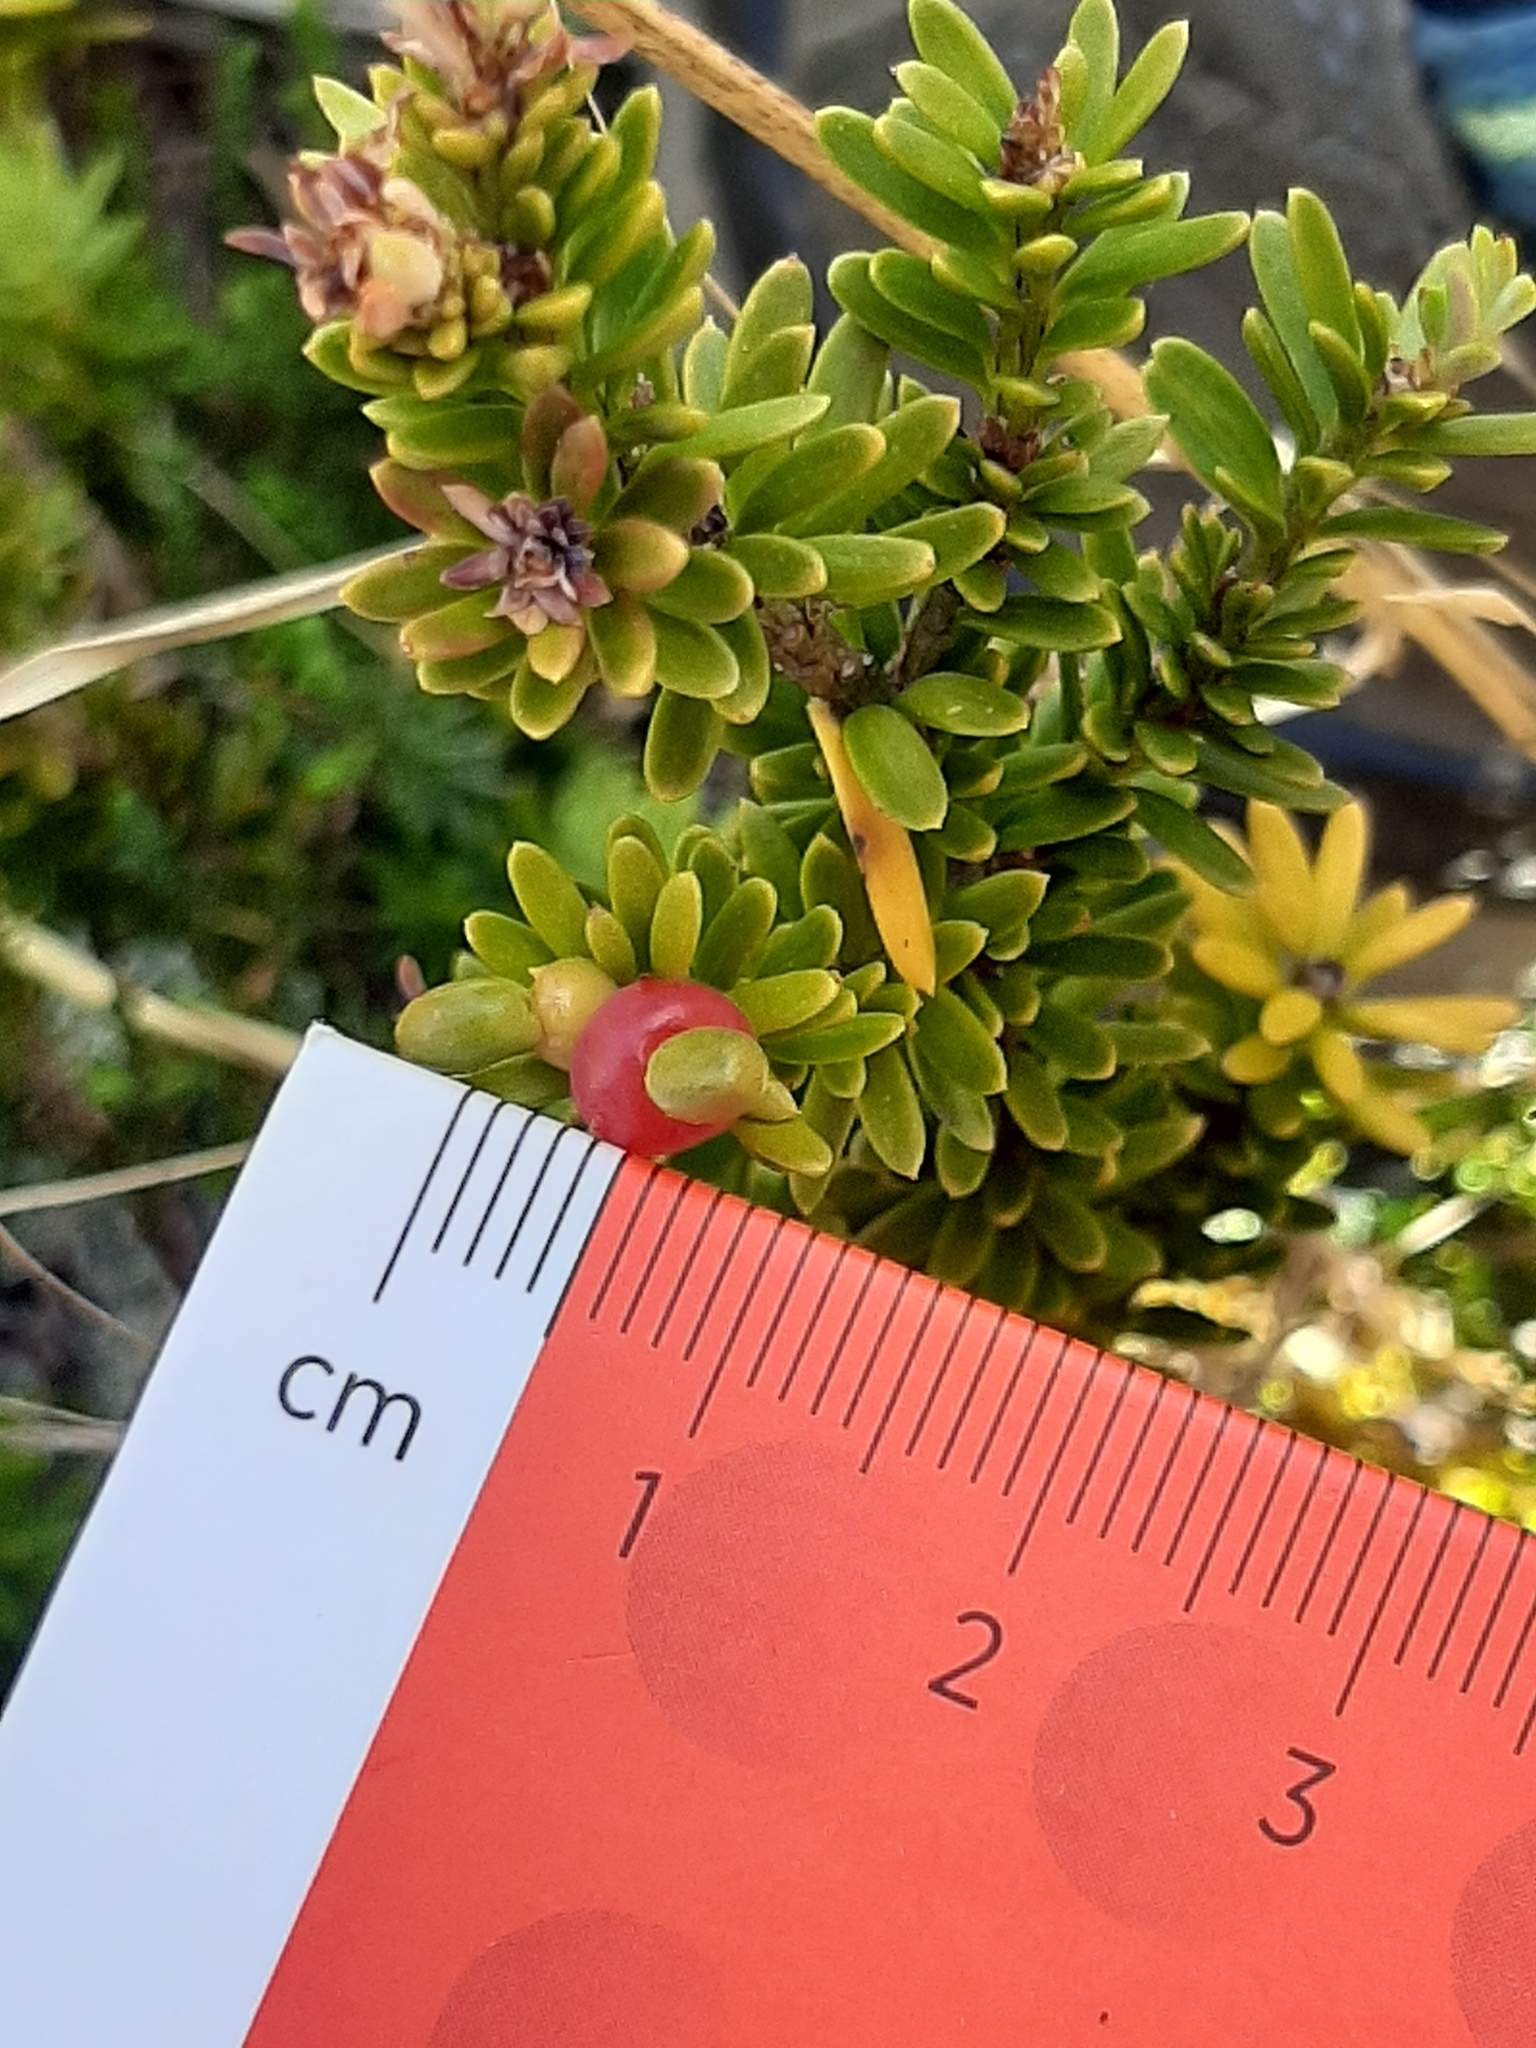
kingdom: Plantae
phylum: Tracheophyta
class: Pinopsida
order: Pinales
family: Podocarpaceae
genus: Podocarpus
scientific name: Podocarpus nivalis
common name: Alpine totara
